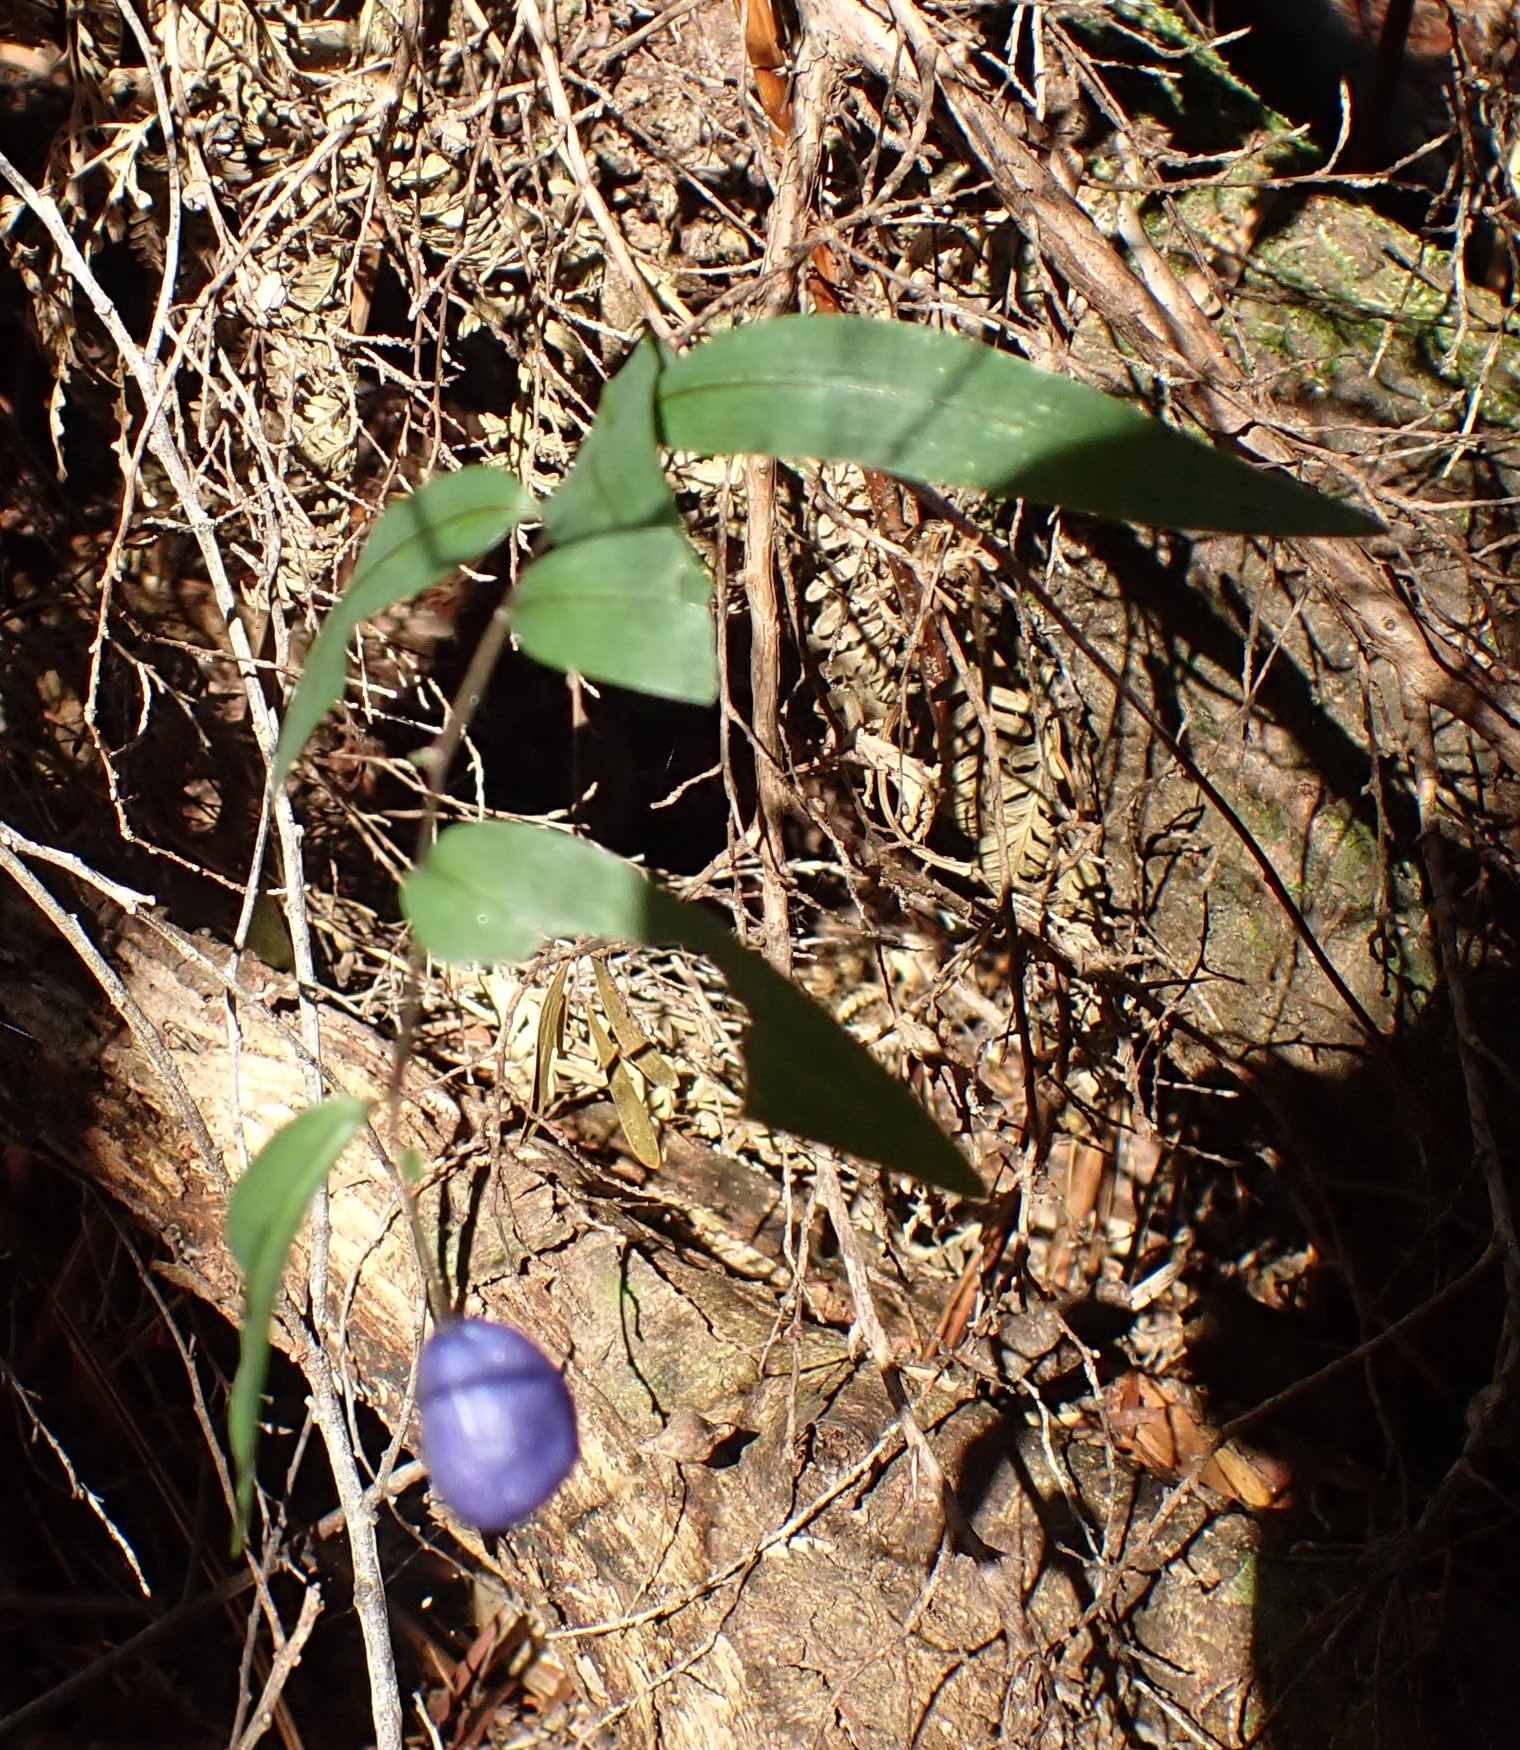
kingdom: Plantae
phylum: Tracheophyta
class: Liliopsida
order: Liliales
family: Alstroemeriaceae
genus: Drymophila
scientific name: Drymophila cyanocarpa
